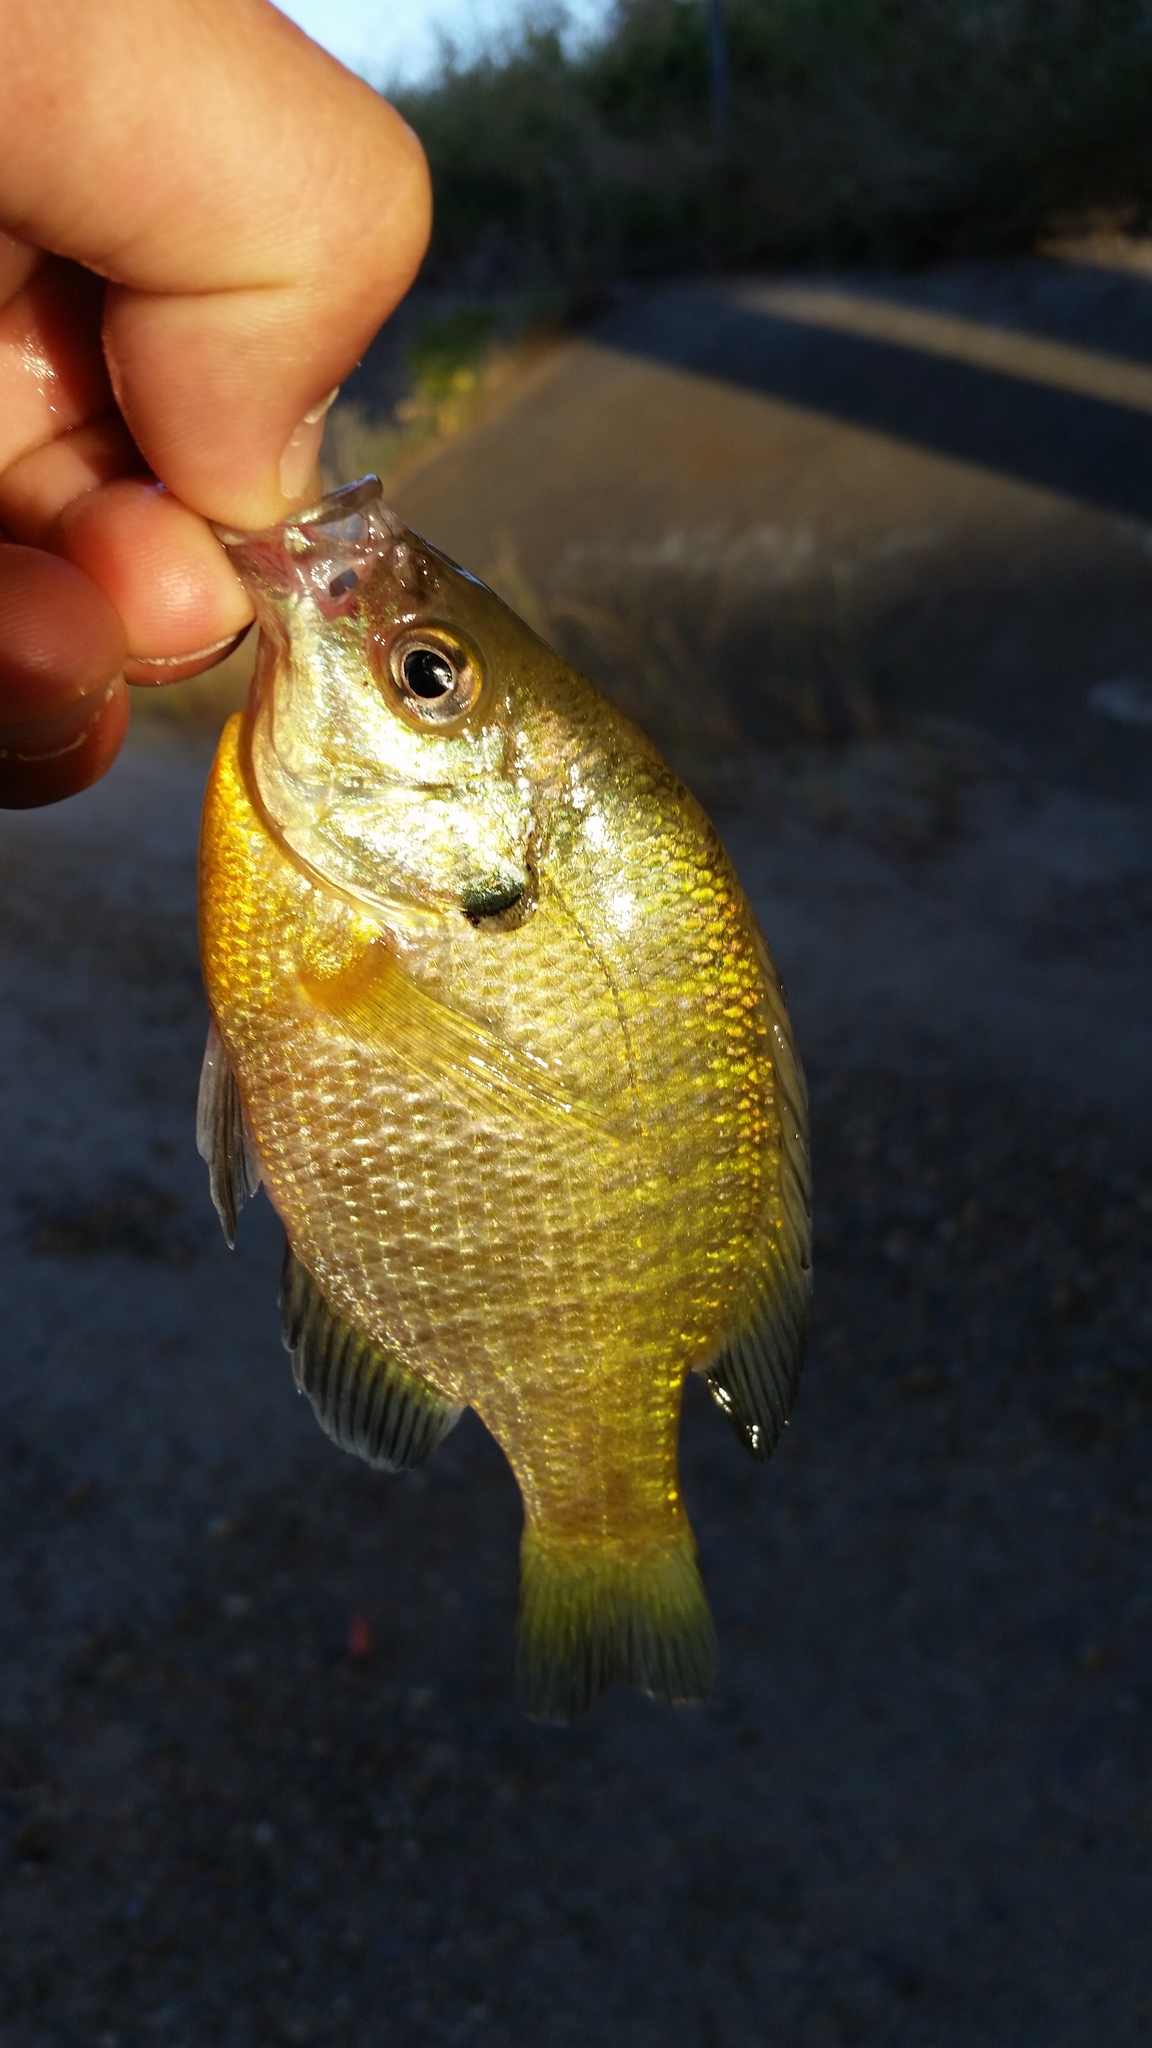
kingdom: Animalia
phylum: Chordata
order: Perciformes
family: Centrarchidae
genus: Lepomis
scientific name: Lepomis macrochirus
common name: Bluegill
